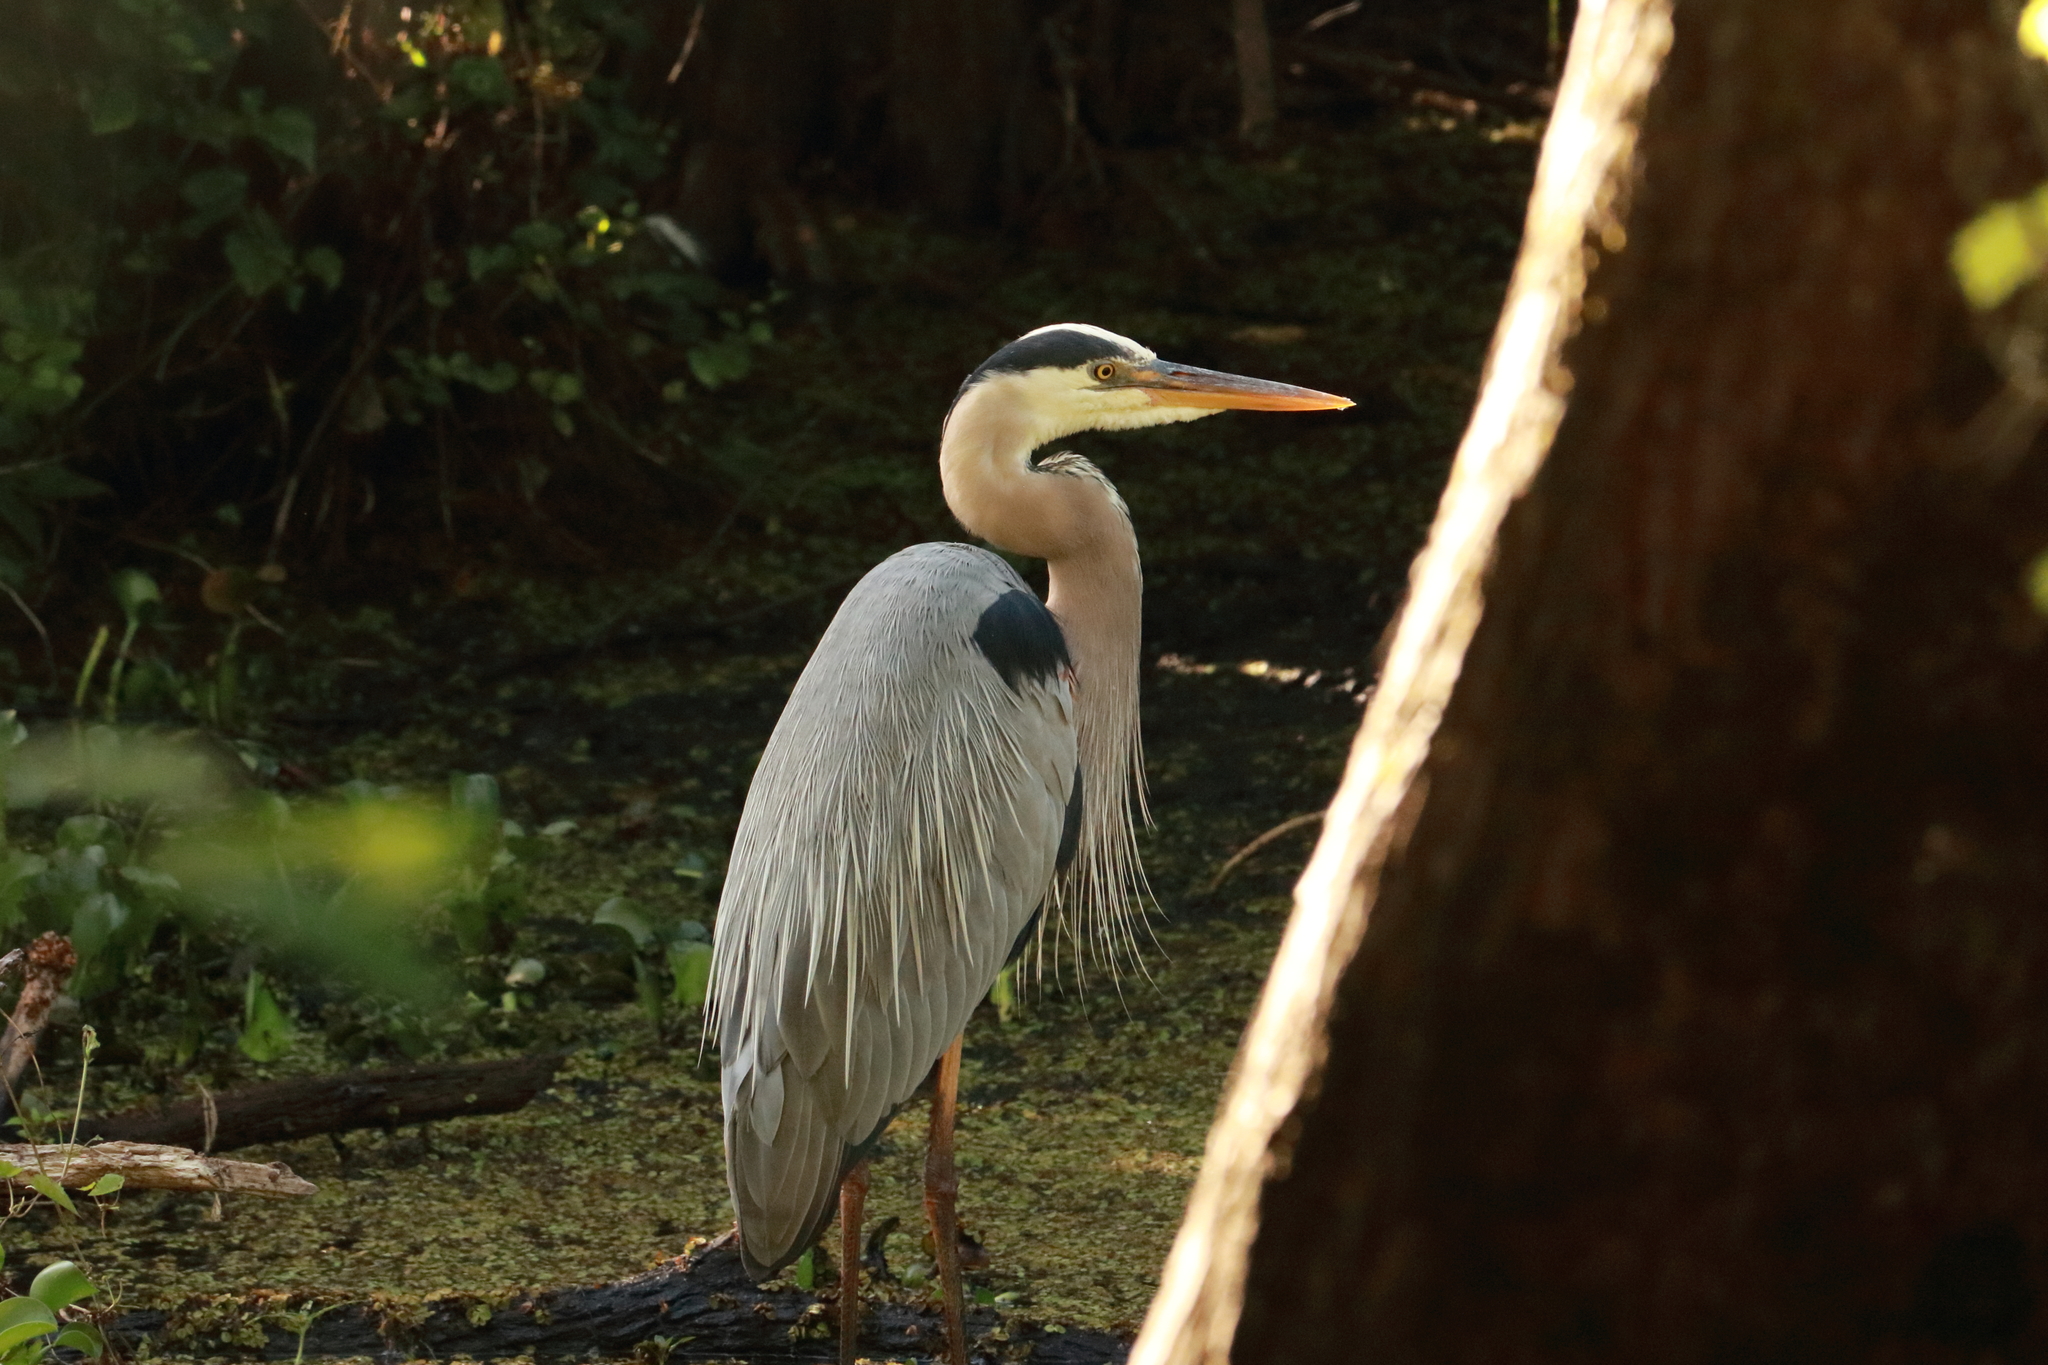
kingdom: Animalia
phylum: Chordata
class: Aves
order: Pelecaniformes
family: Ardeidae
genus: Ardea
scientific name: Ardea herodias
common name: Great blue heron
